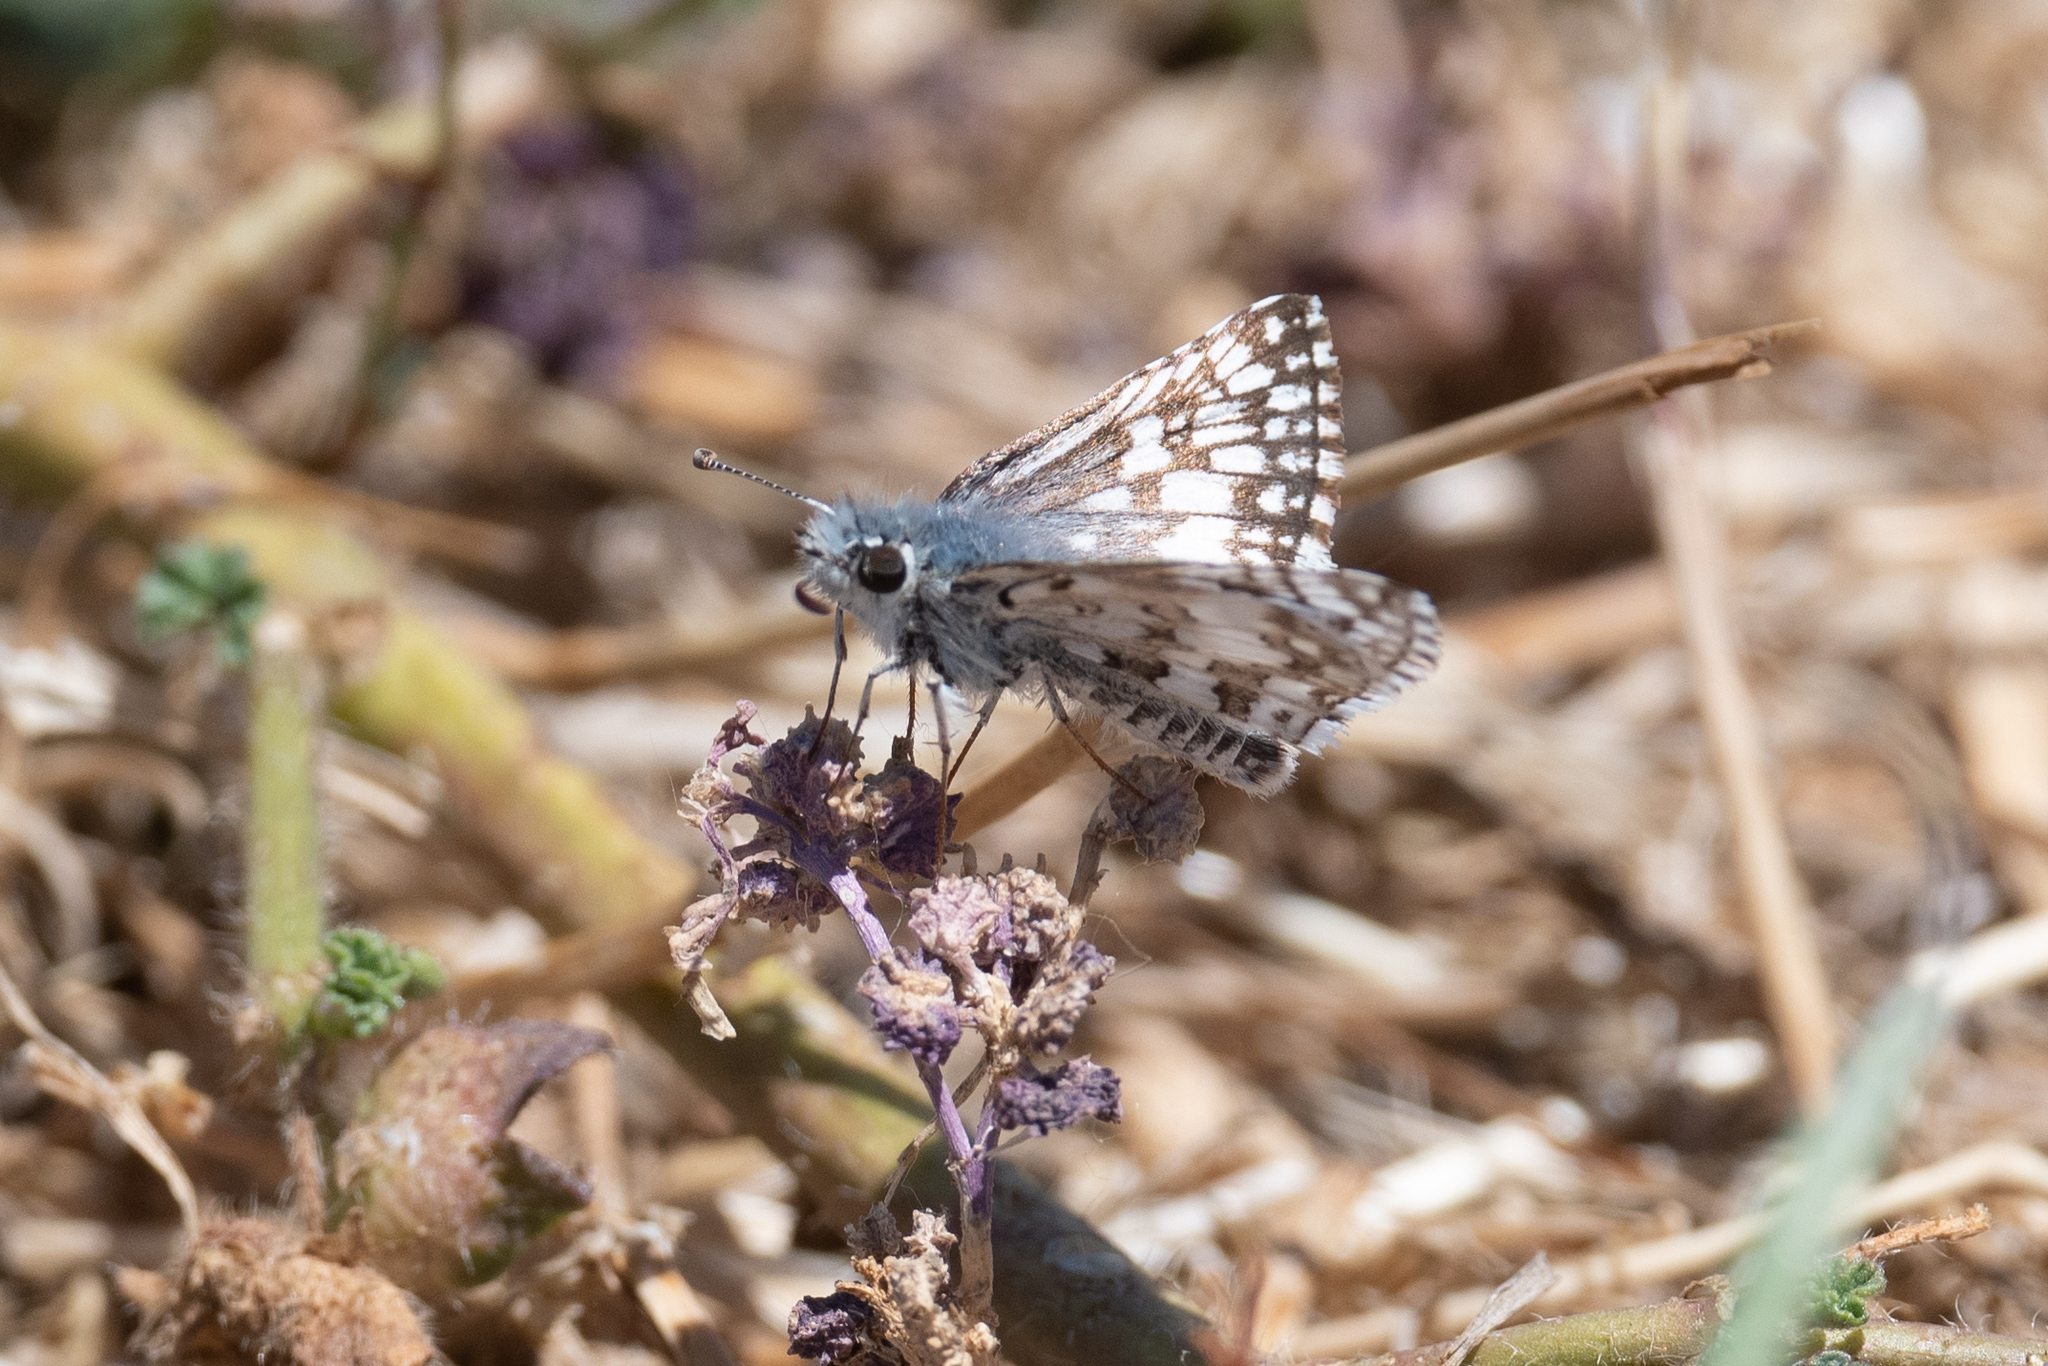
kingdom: Animalia
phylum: Arthropoda
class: Insecta
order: Lepidoptera
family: Hesperiidae
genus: Burnsius
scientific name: Burnsius communis
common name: Common checkered-skipper
